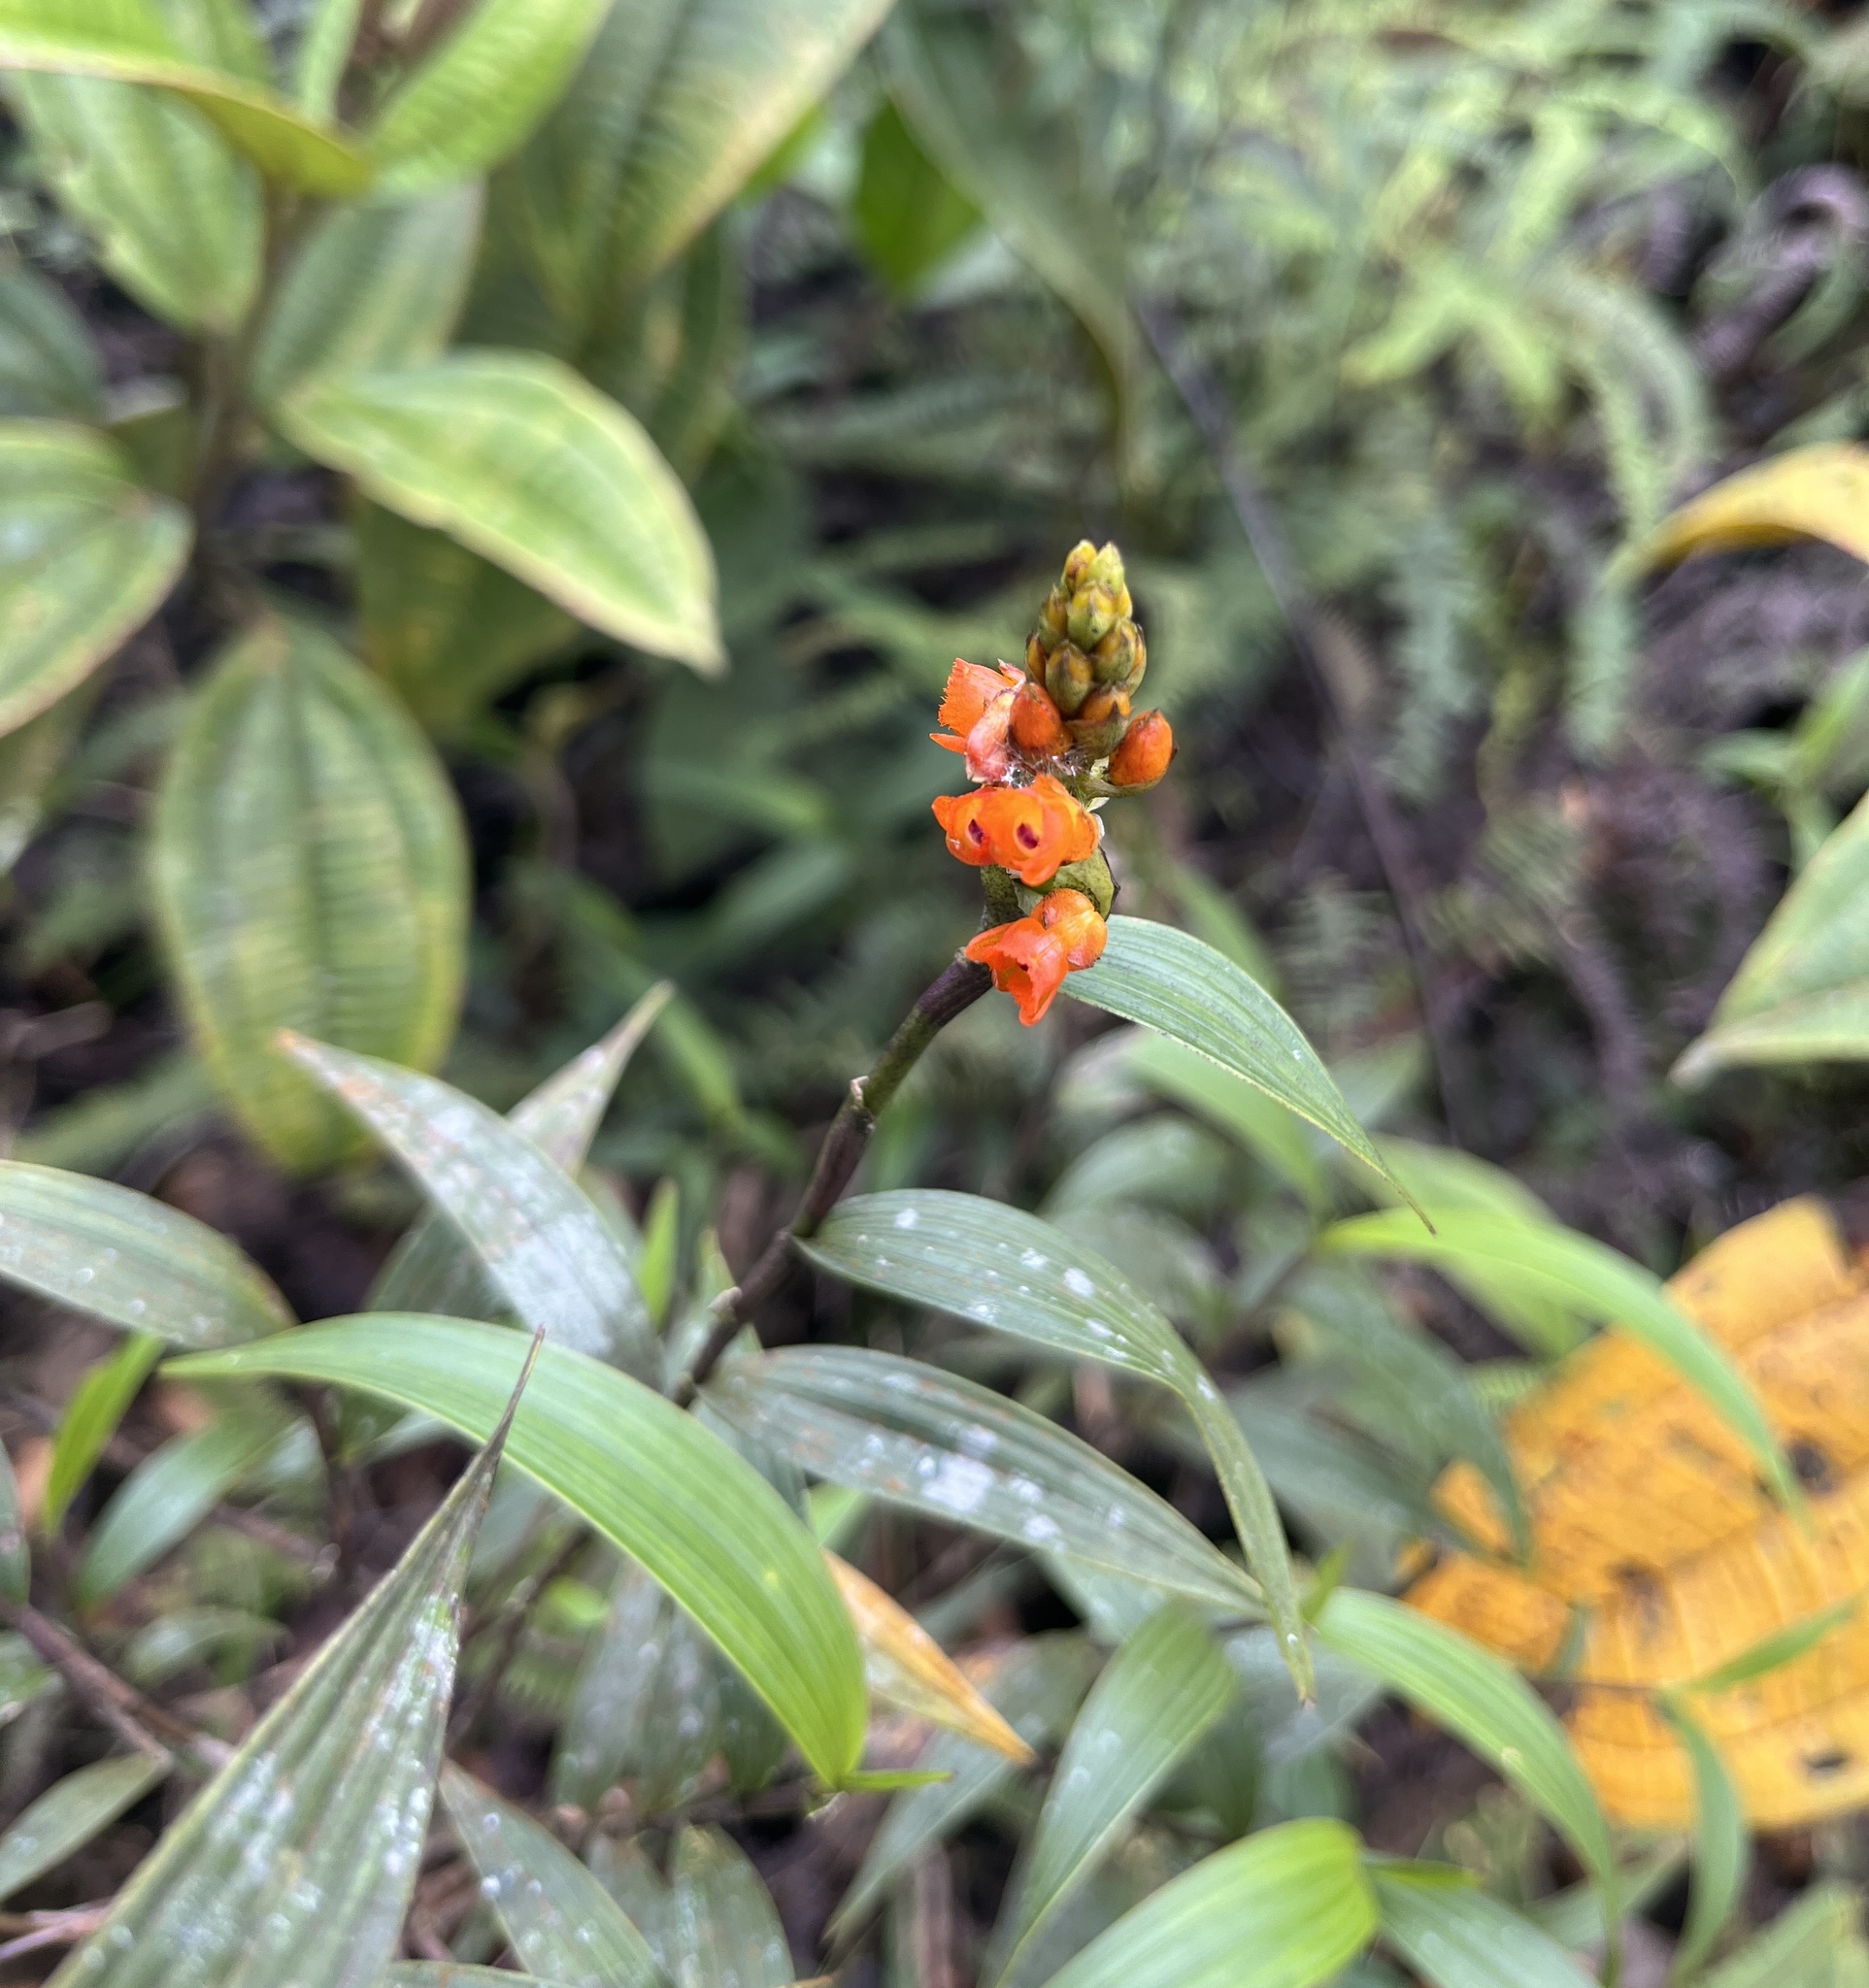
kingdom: Plantae
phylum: Tracheophyta
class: Liliopsida
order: Asparagales
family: Orchidaceae
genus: Elleanthus
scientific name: Elleanthus aurantiacus
